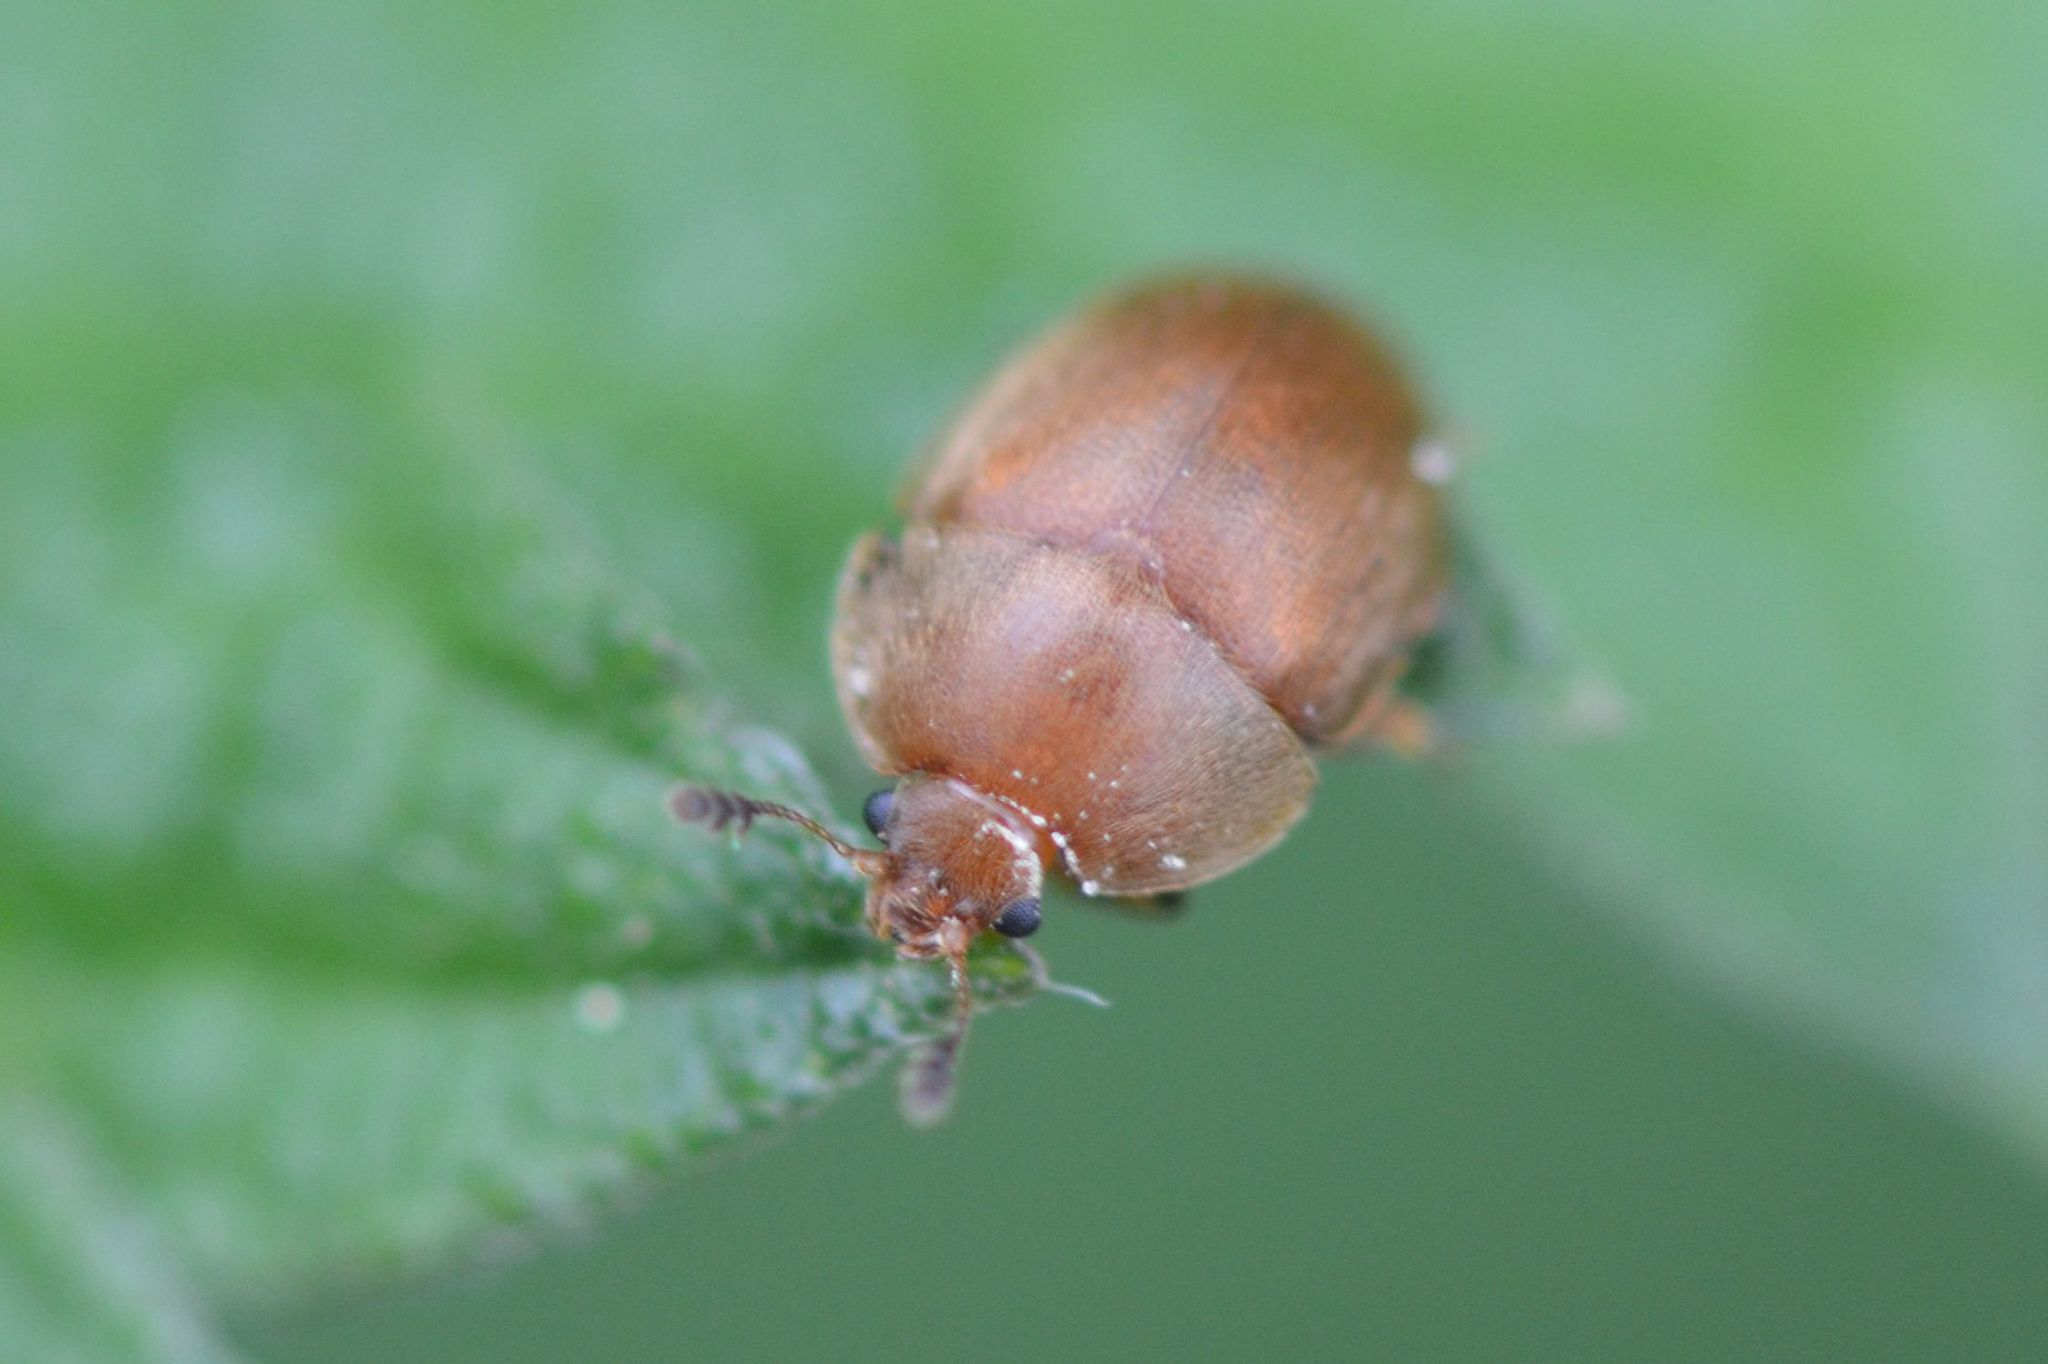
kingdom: Animalia
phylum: Arthropoda
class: Insecta
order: Coleoptera
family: Nitidulidae
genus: Cychramus
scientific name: Cychramus luteus
